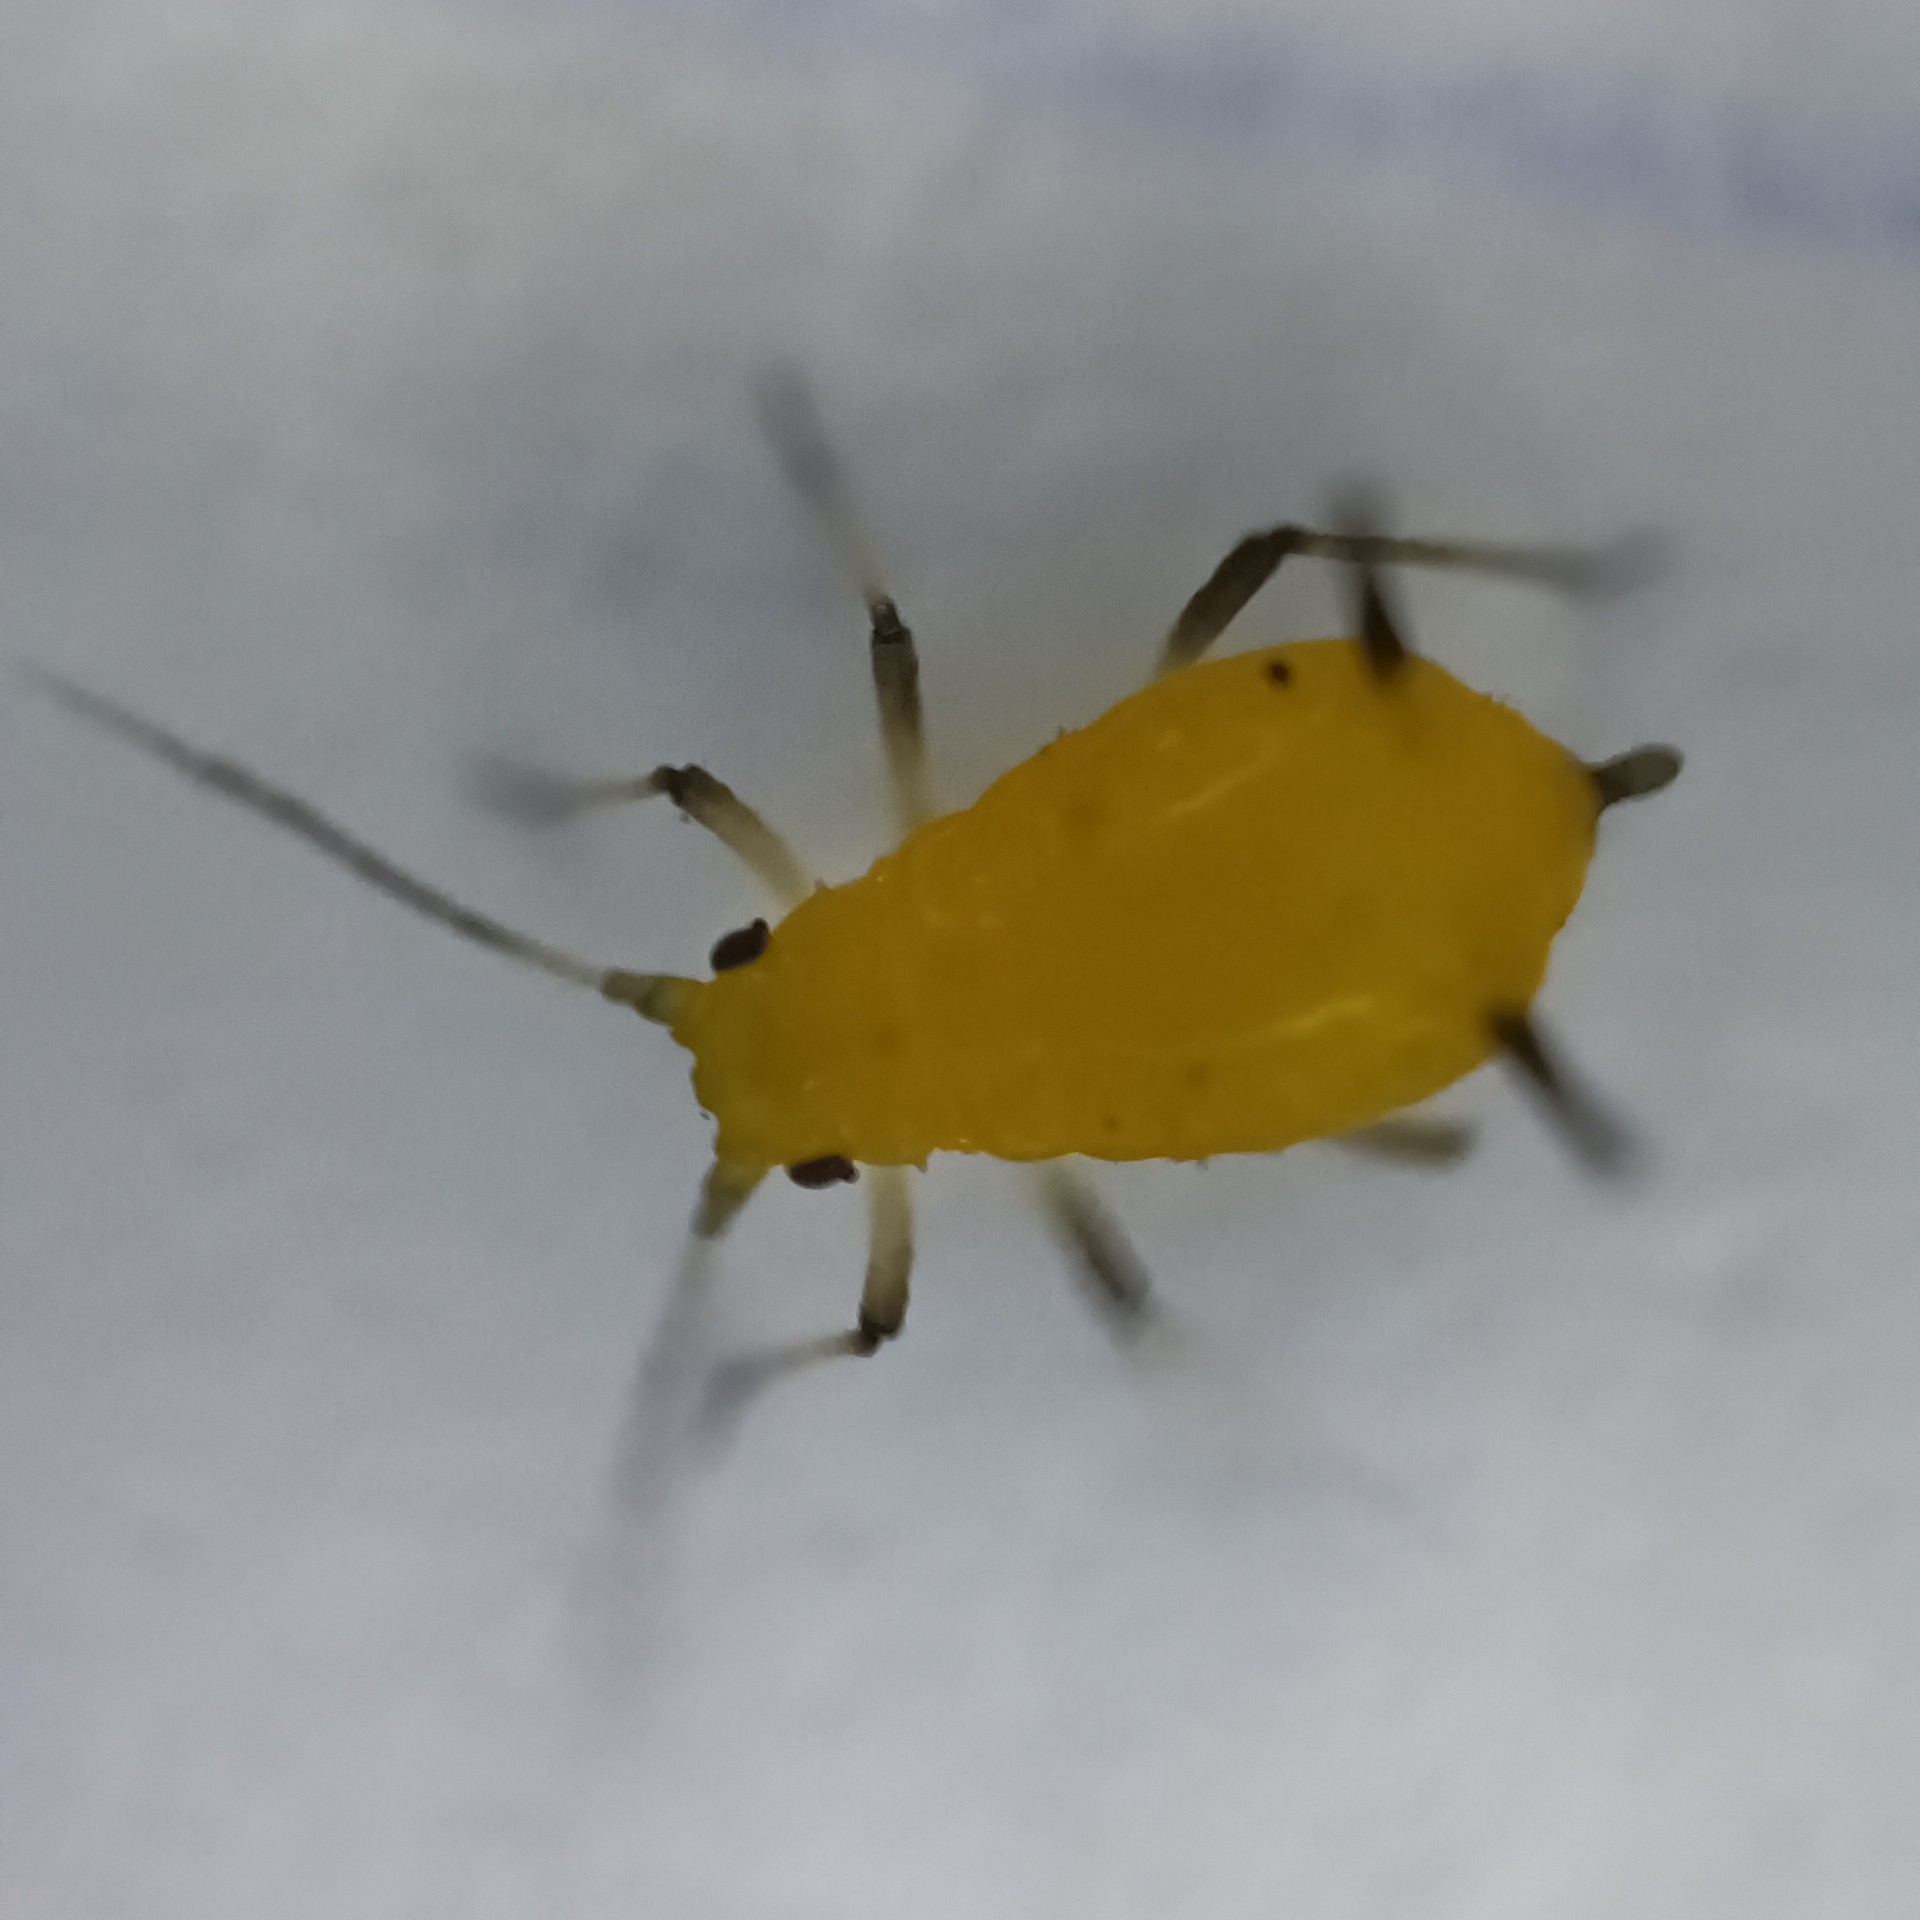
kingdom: Animalia
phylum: Arthropoda
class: Insecta
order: Hemiptera
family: Aphididae
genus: Aphis
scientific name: Aphis nerii
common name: Oleander aphid
